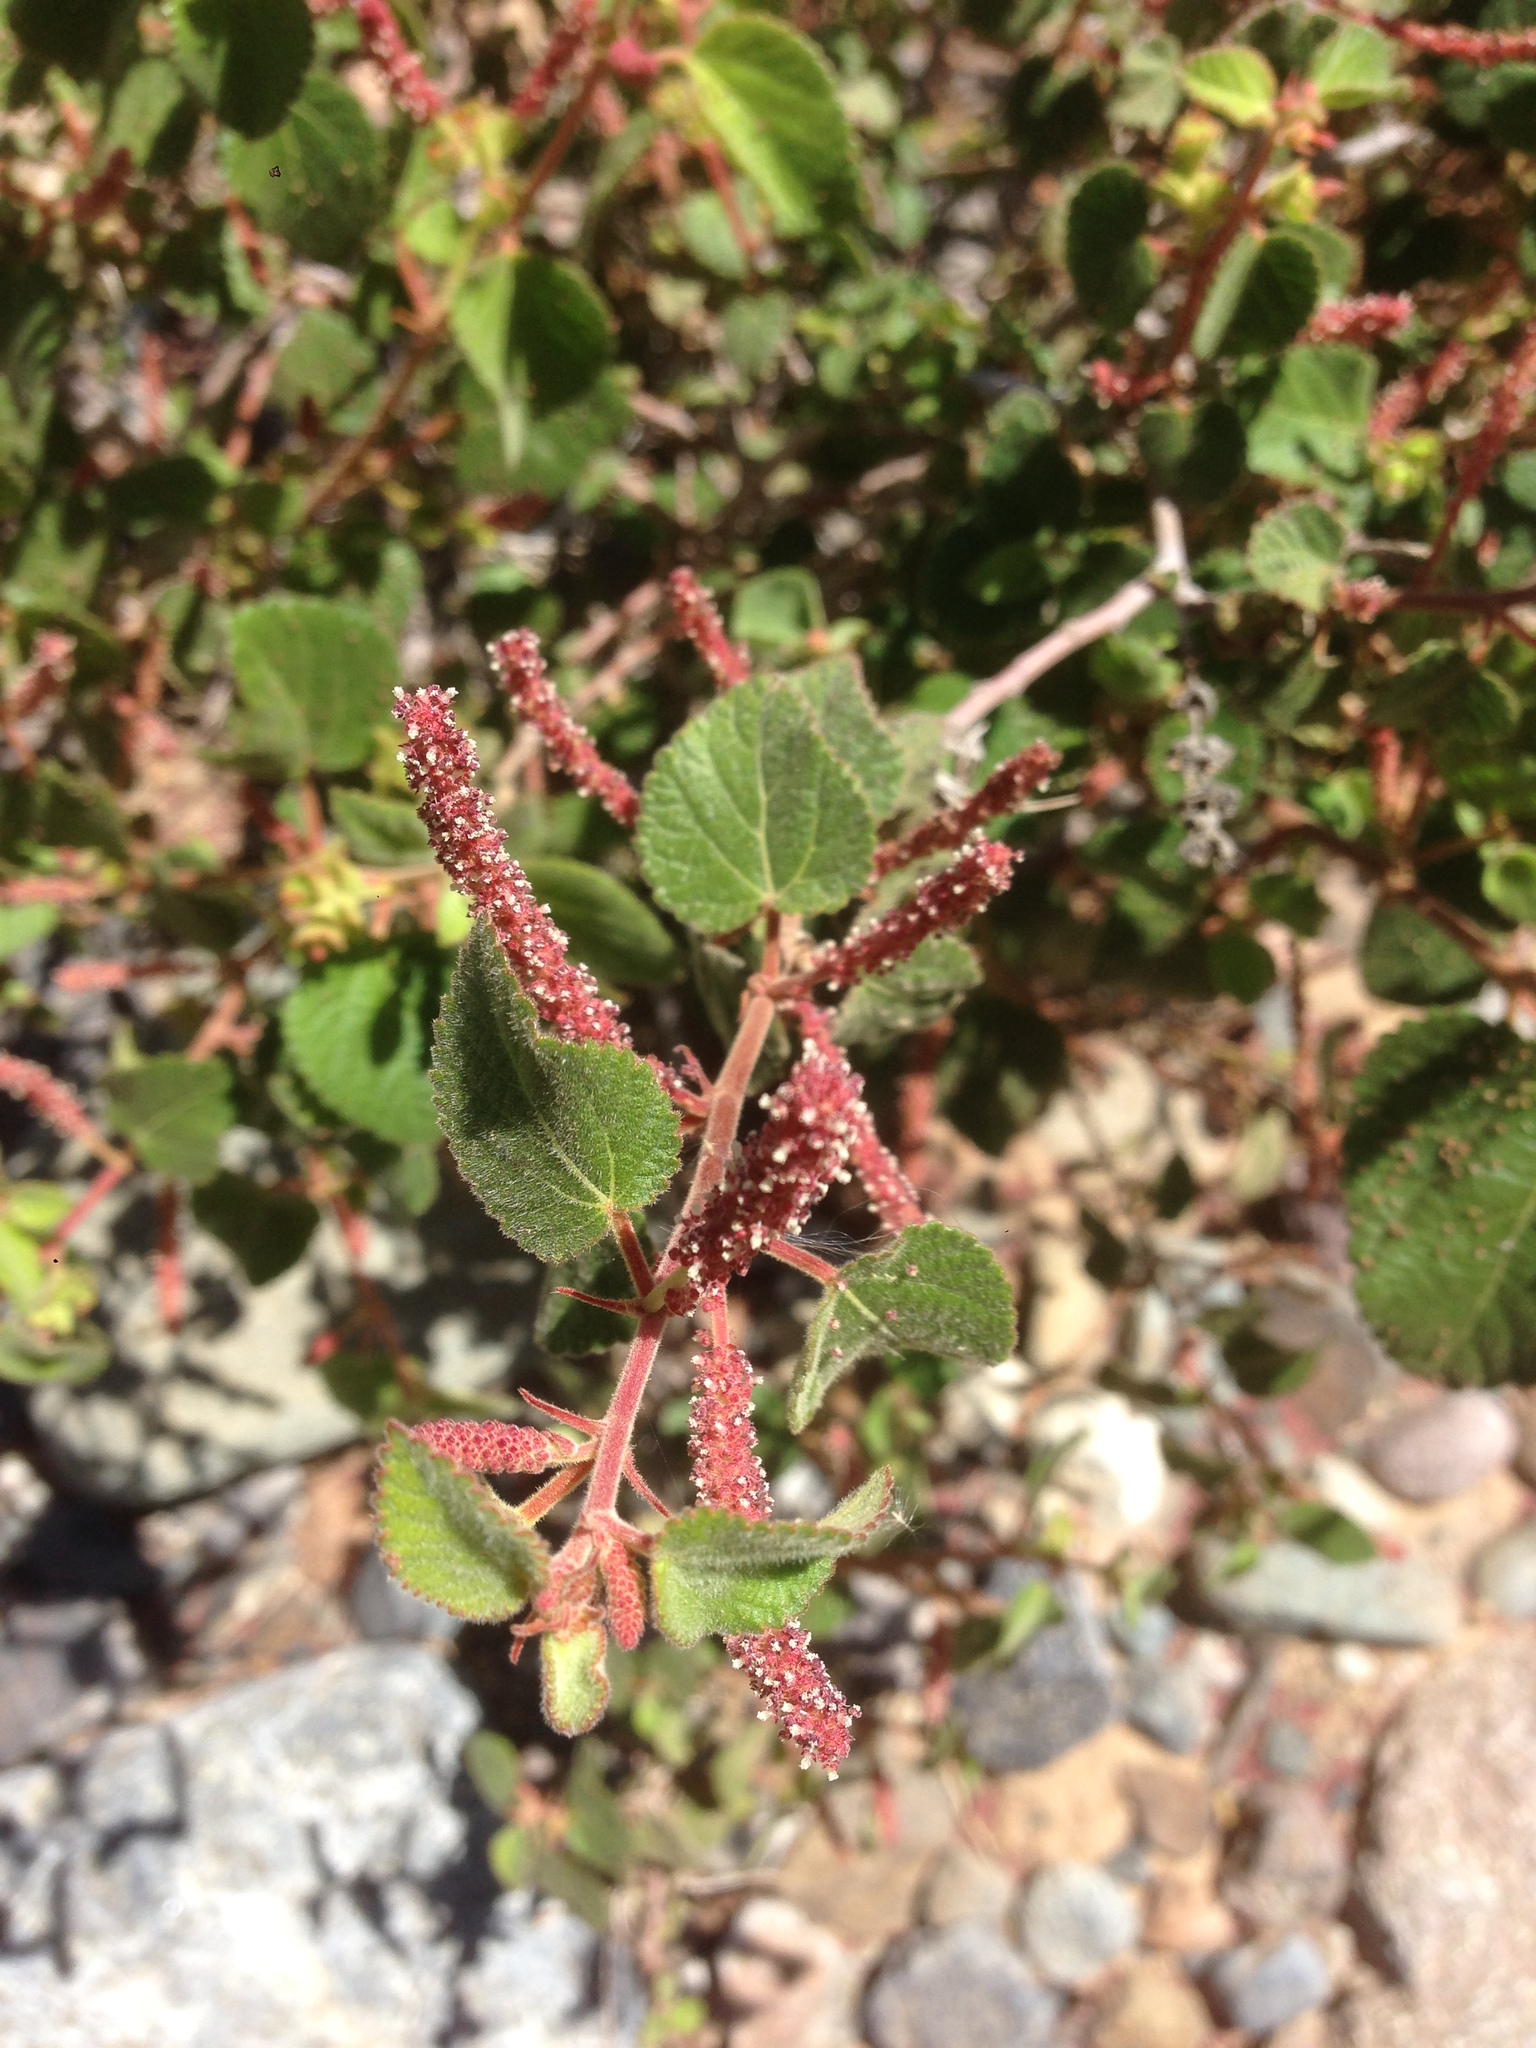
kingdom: Plantae
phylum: Tracheophyta
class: Magnoliopsida
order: Malpighiales
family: Euphorbiaceae
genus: Acalypha
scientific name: Acalypha californica
